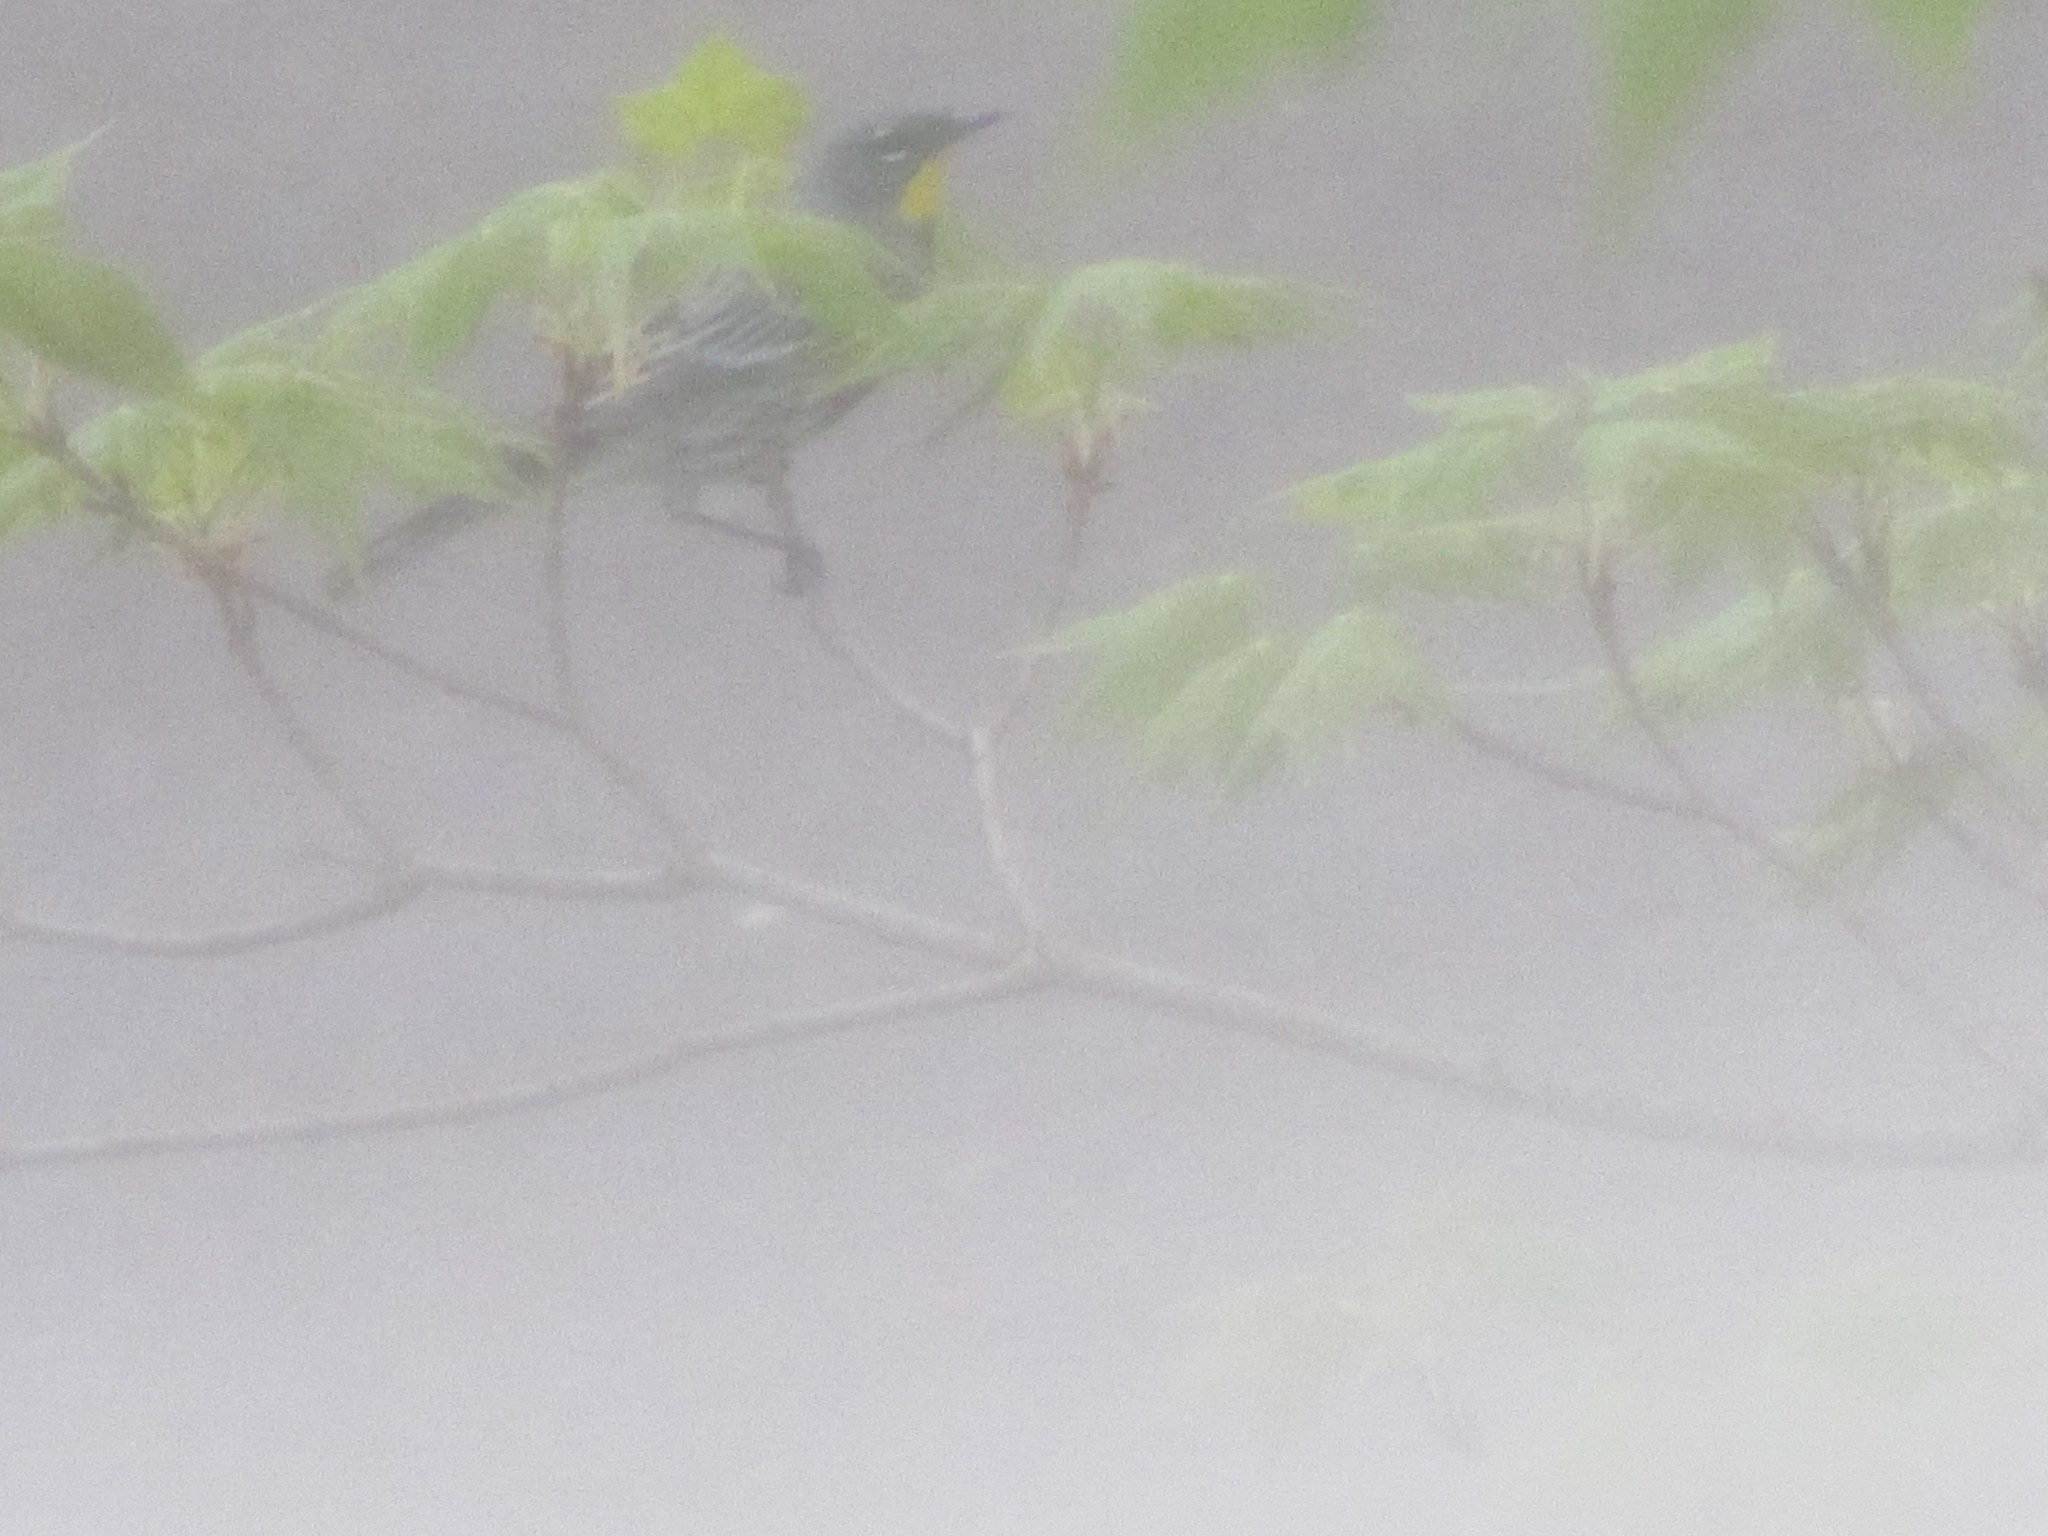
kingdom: Animalia
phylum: Chordata
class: Aves
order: Passeriformes
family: Parulidae
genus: Setophaga
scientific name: Setophaga auduboni
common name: Audubon's warbler
